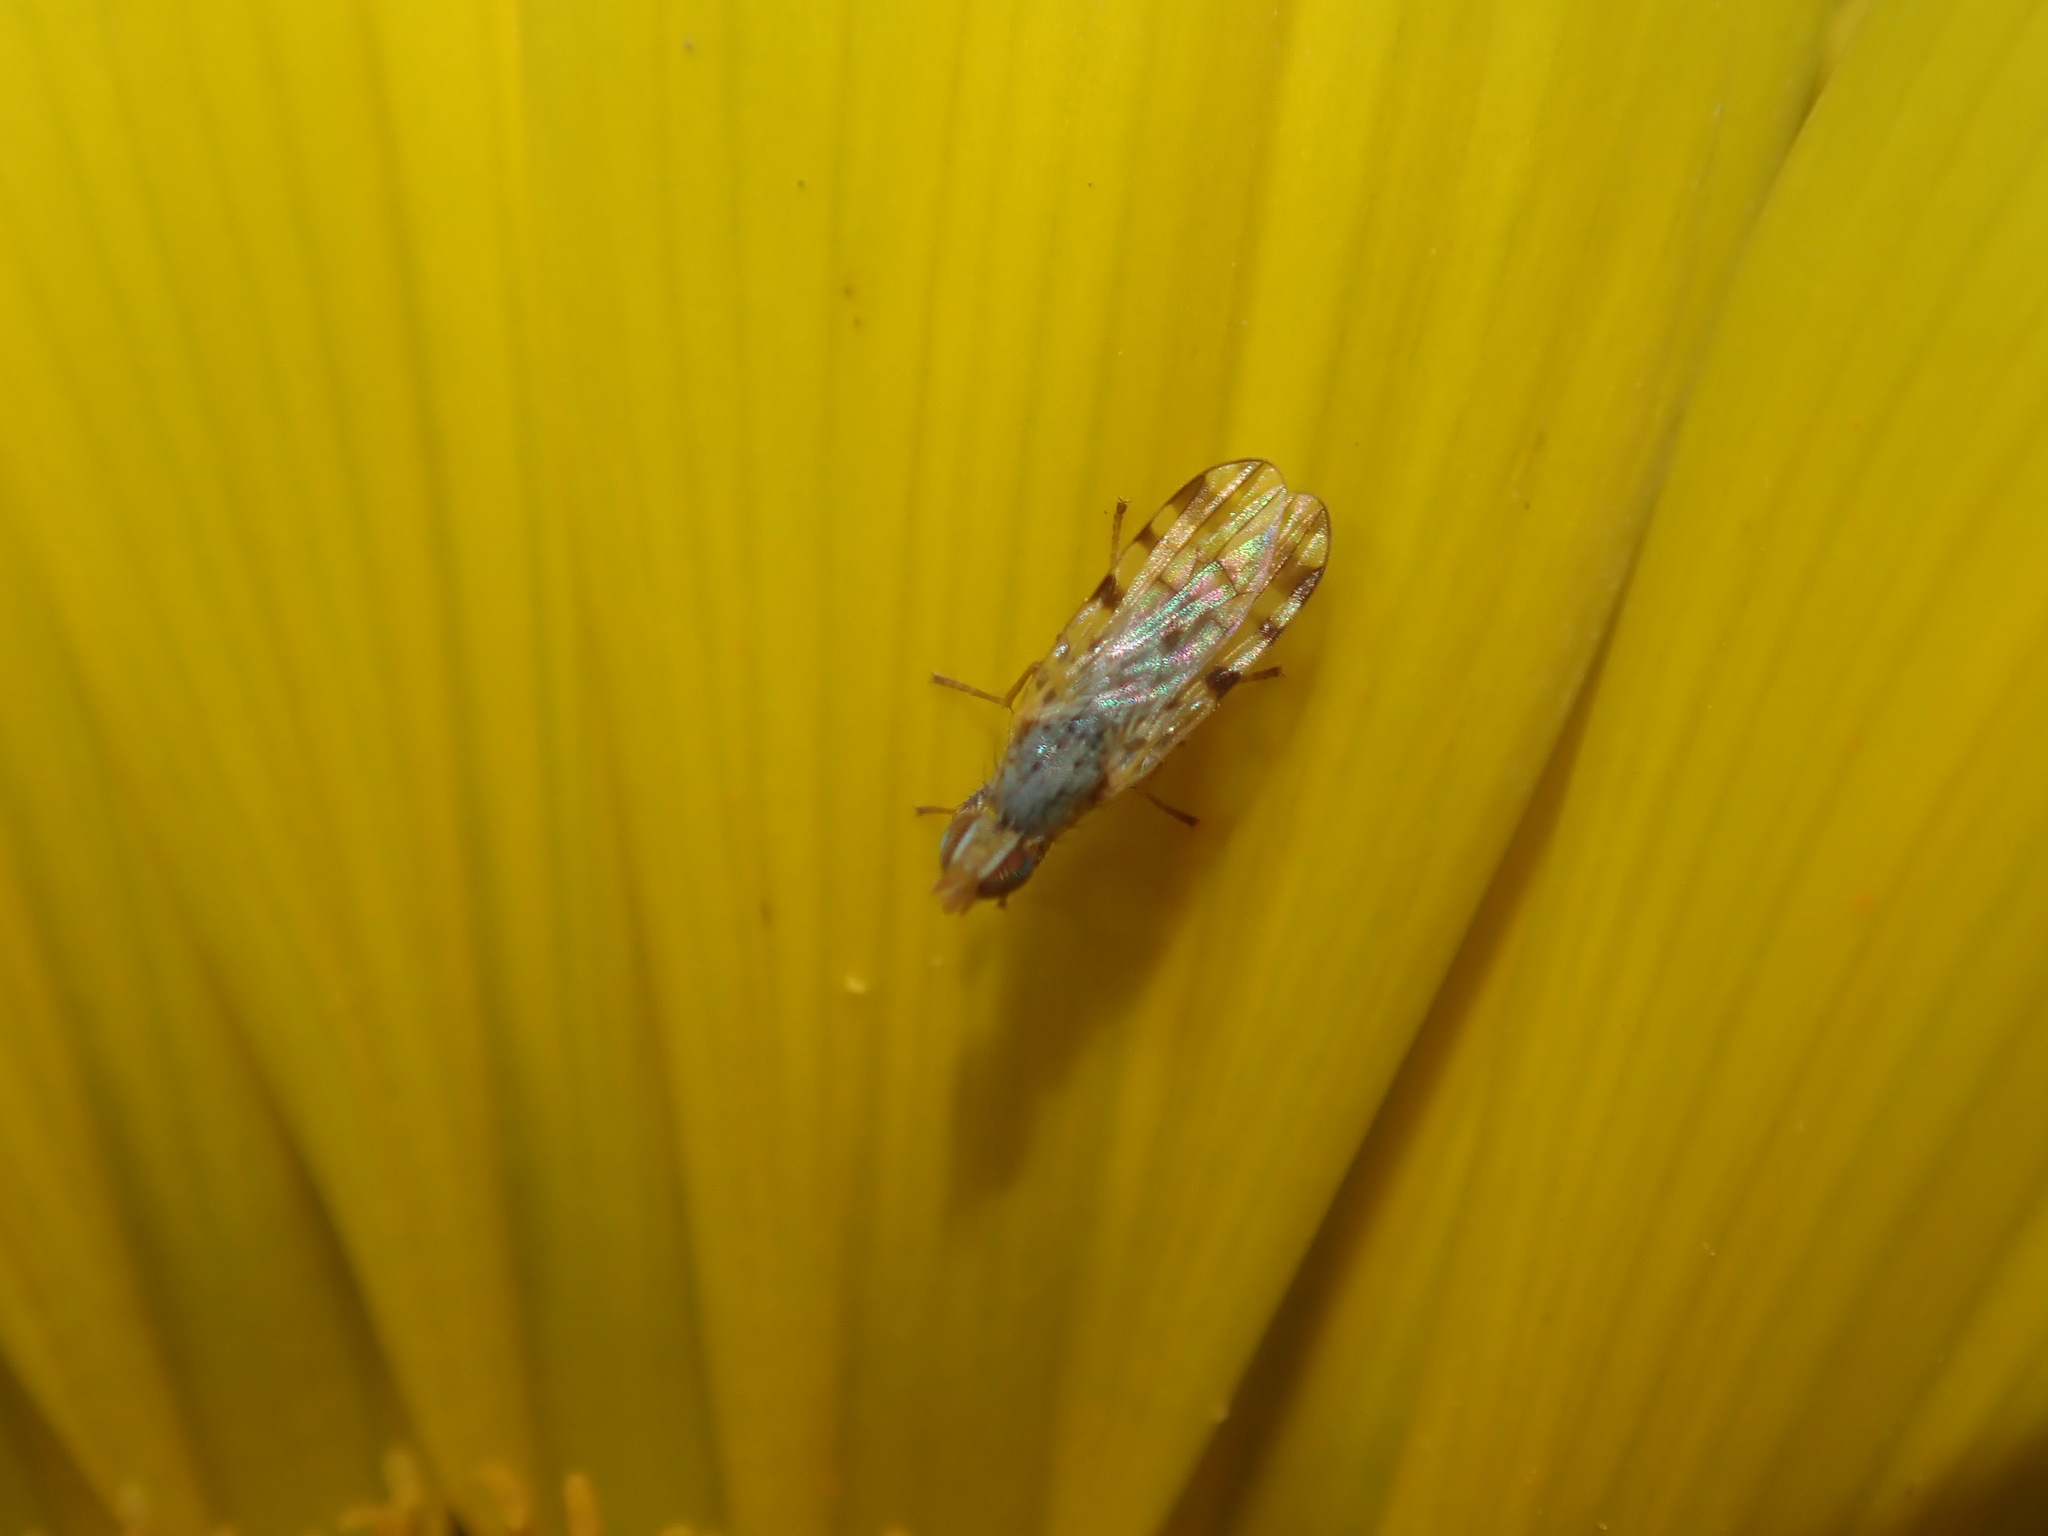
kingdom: Animalia
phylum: Arthropoda
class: Insecta
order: Diptera
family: Tephritidae
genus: Dioxyna
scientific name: Dioxyna hyalina
